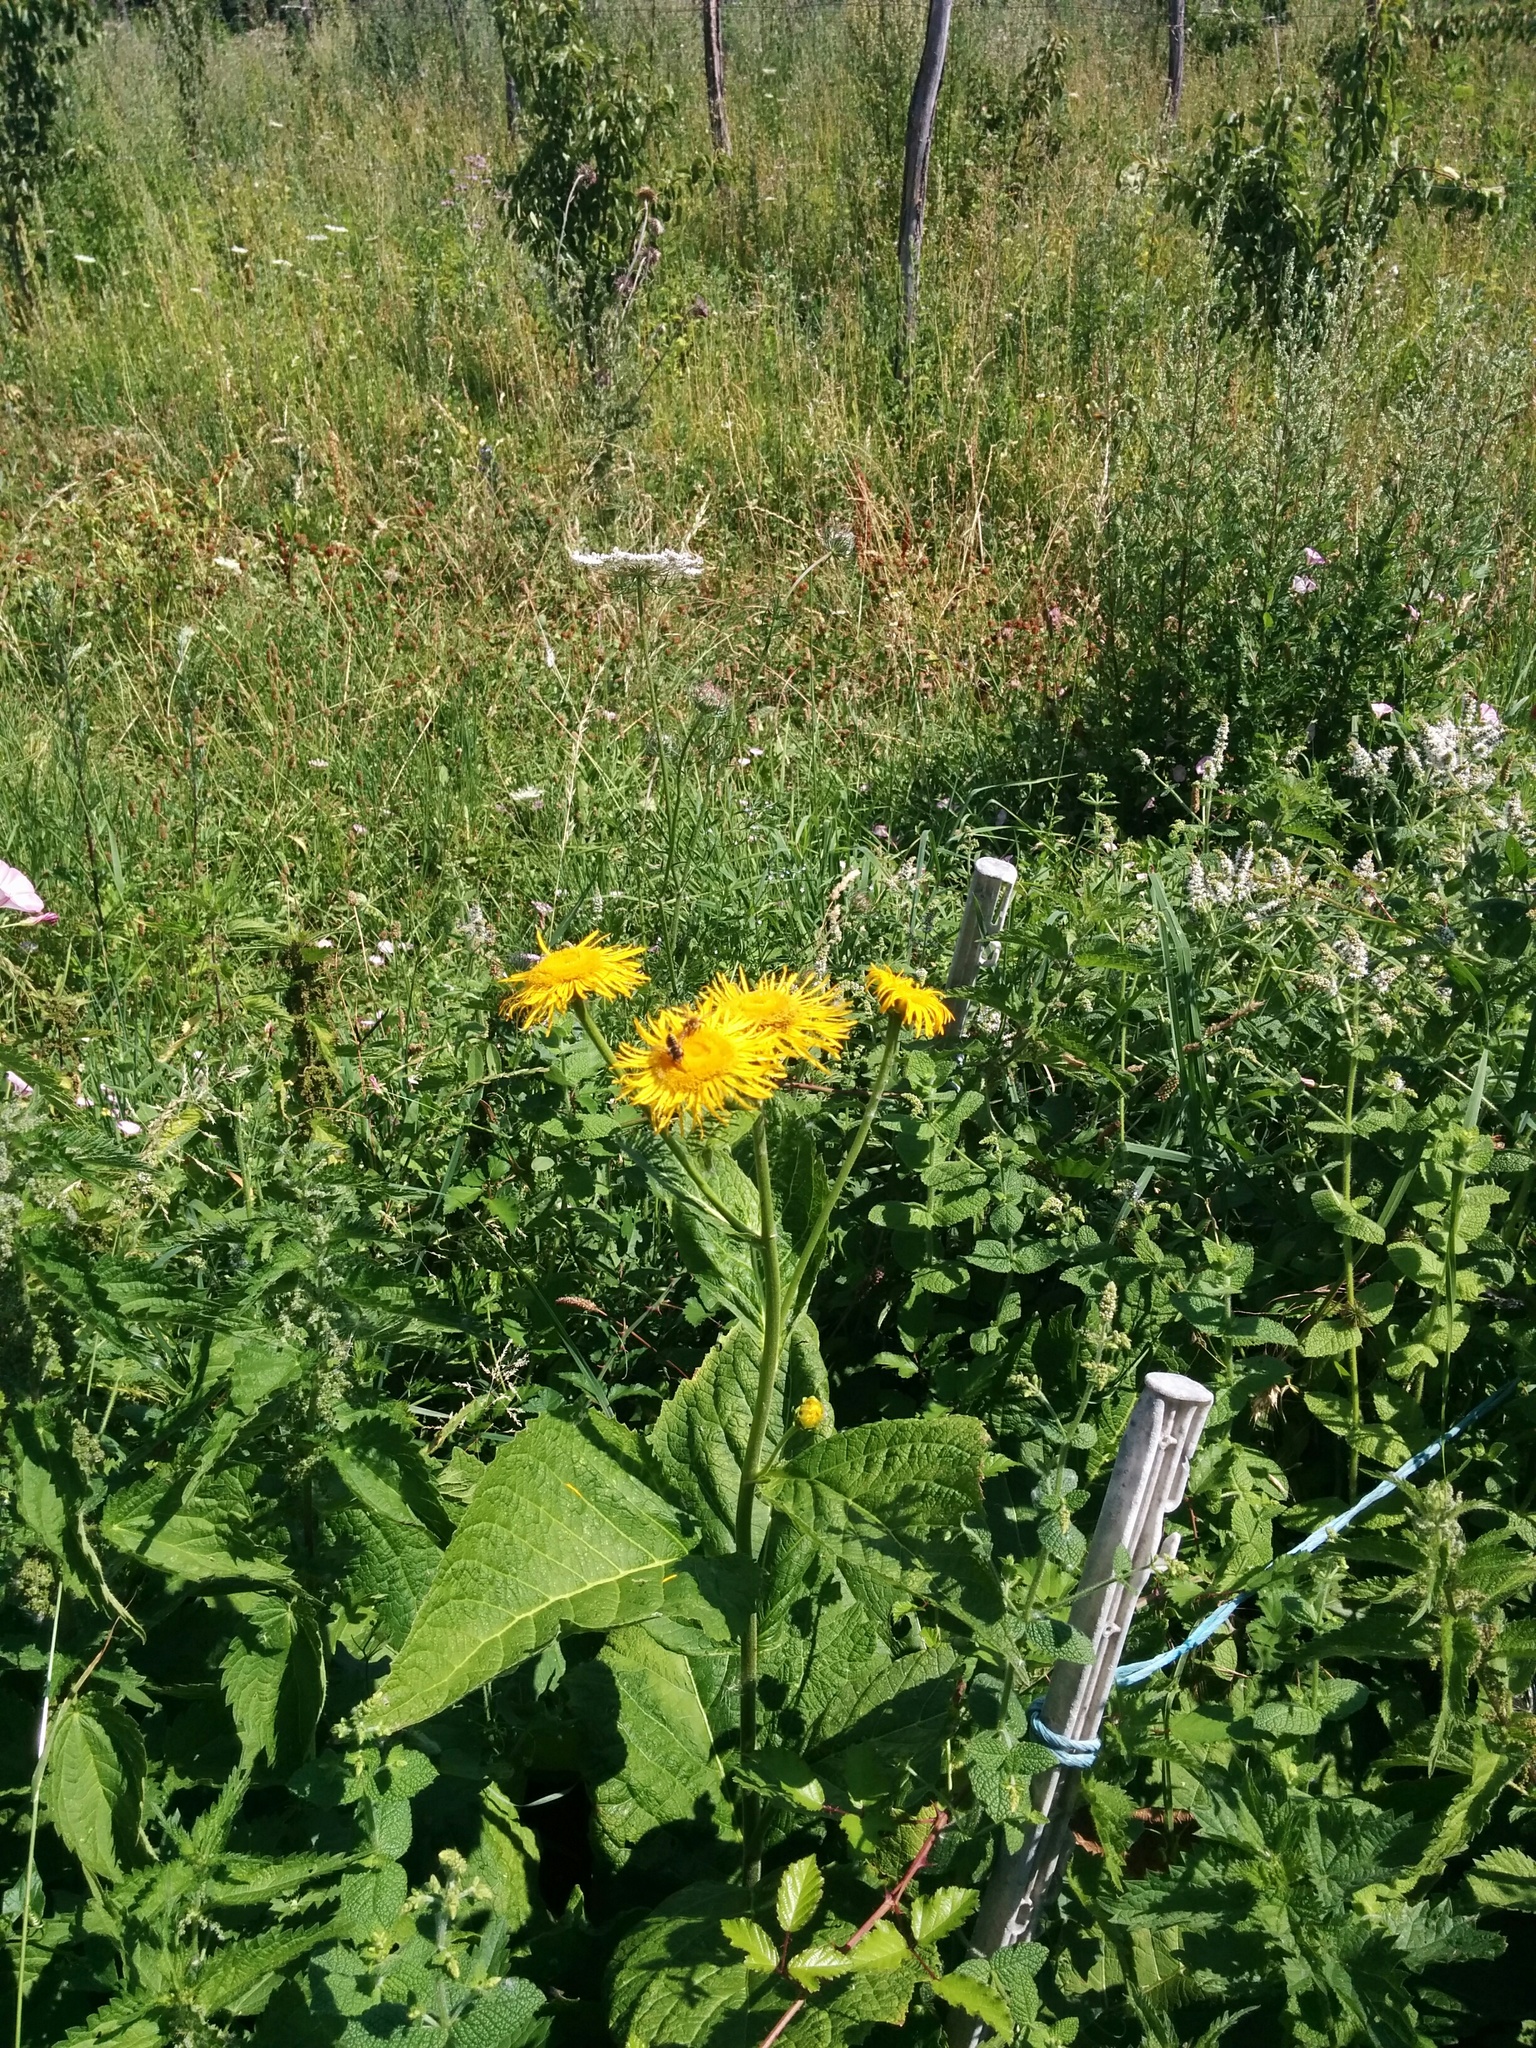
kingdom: Plantae
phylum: Tracheophyta
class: Magnoliopsida
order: Asterales
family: Asteraceae
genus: Telekia
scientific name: Telekia speciosa
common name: Yellow oxeye
